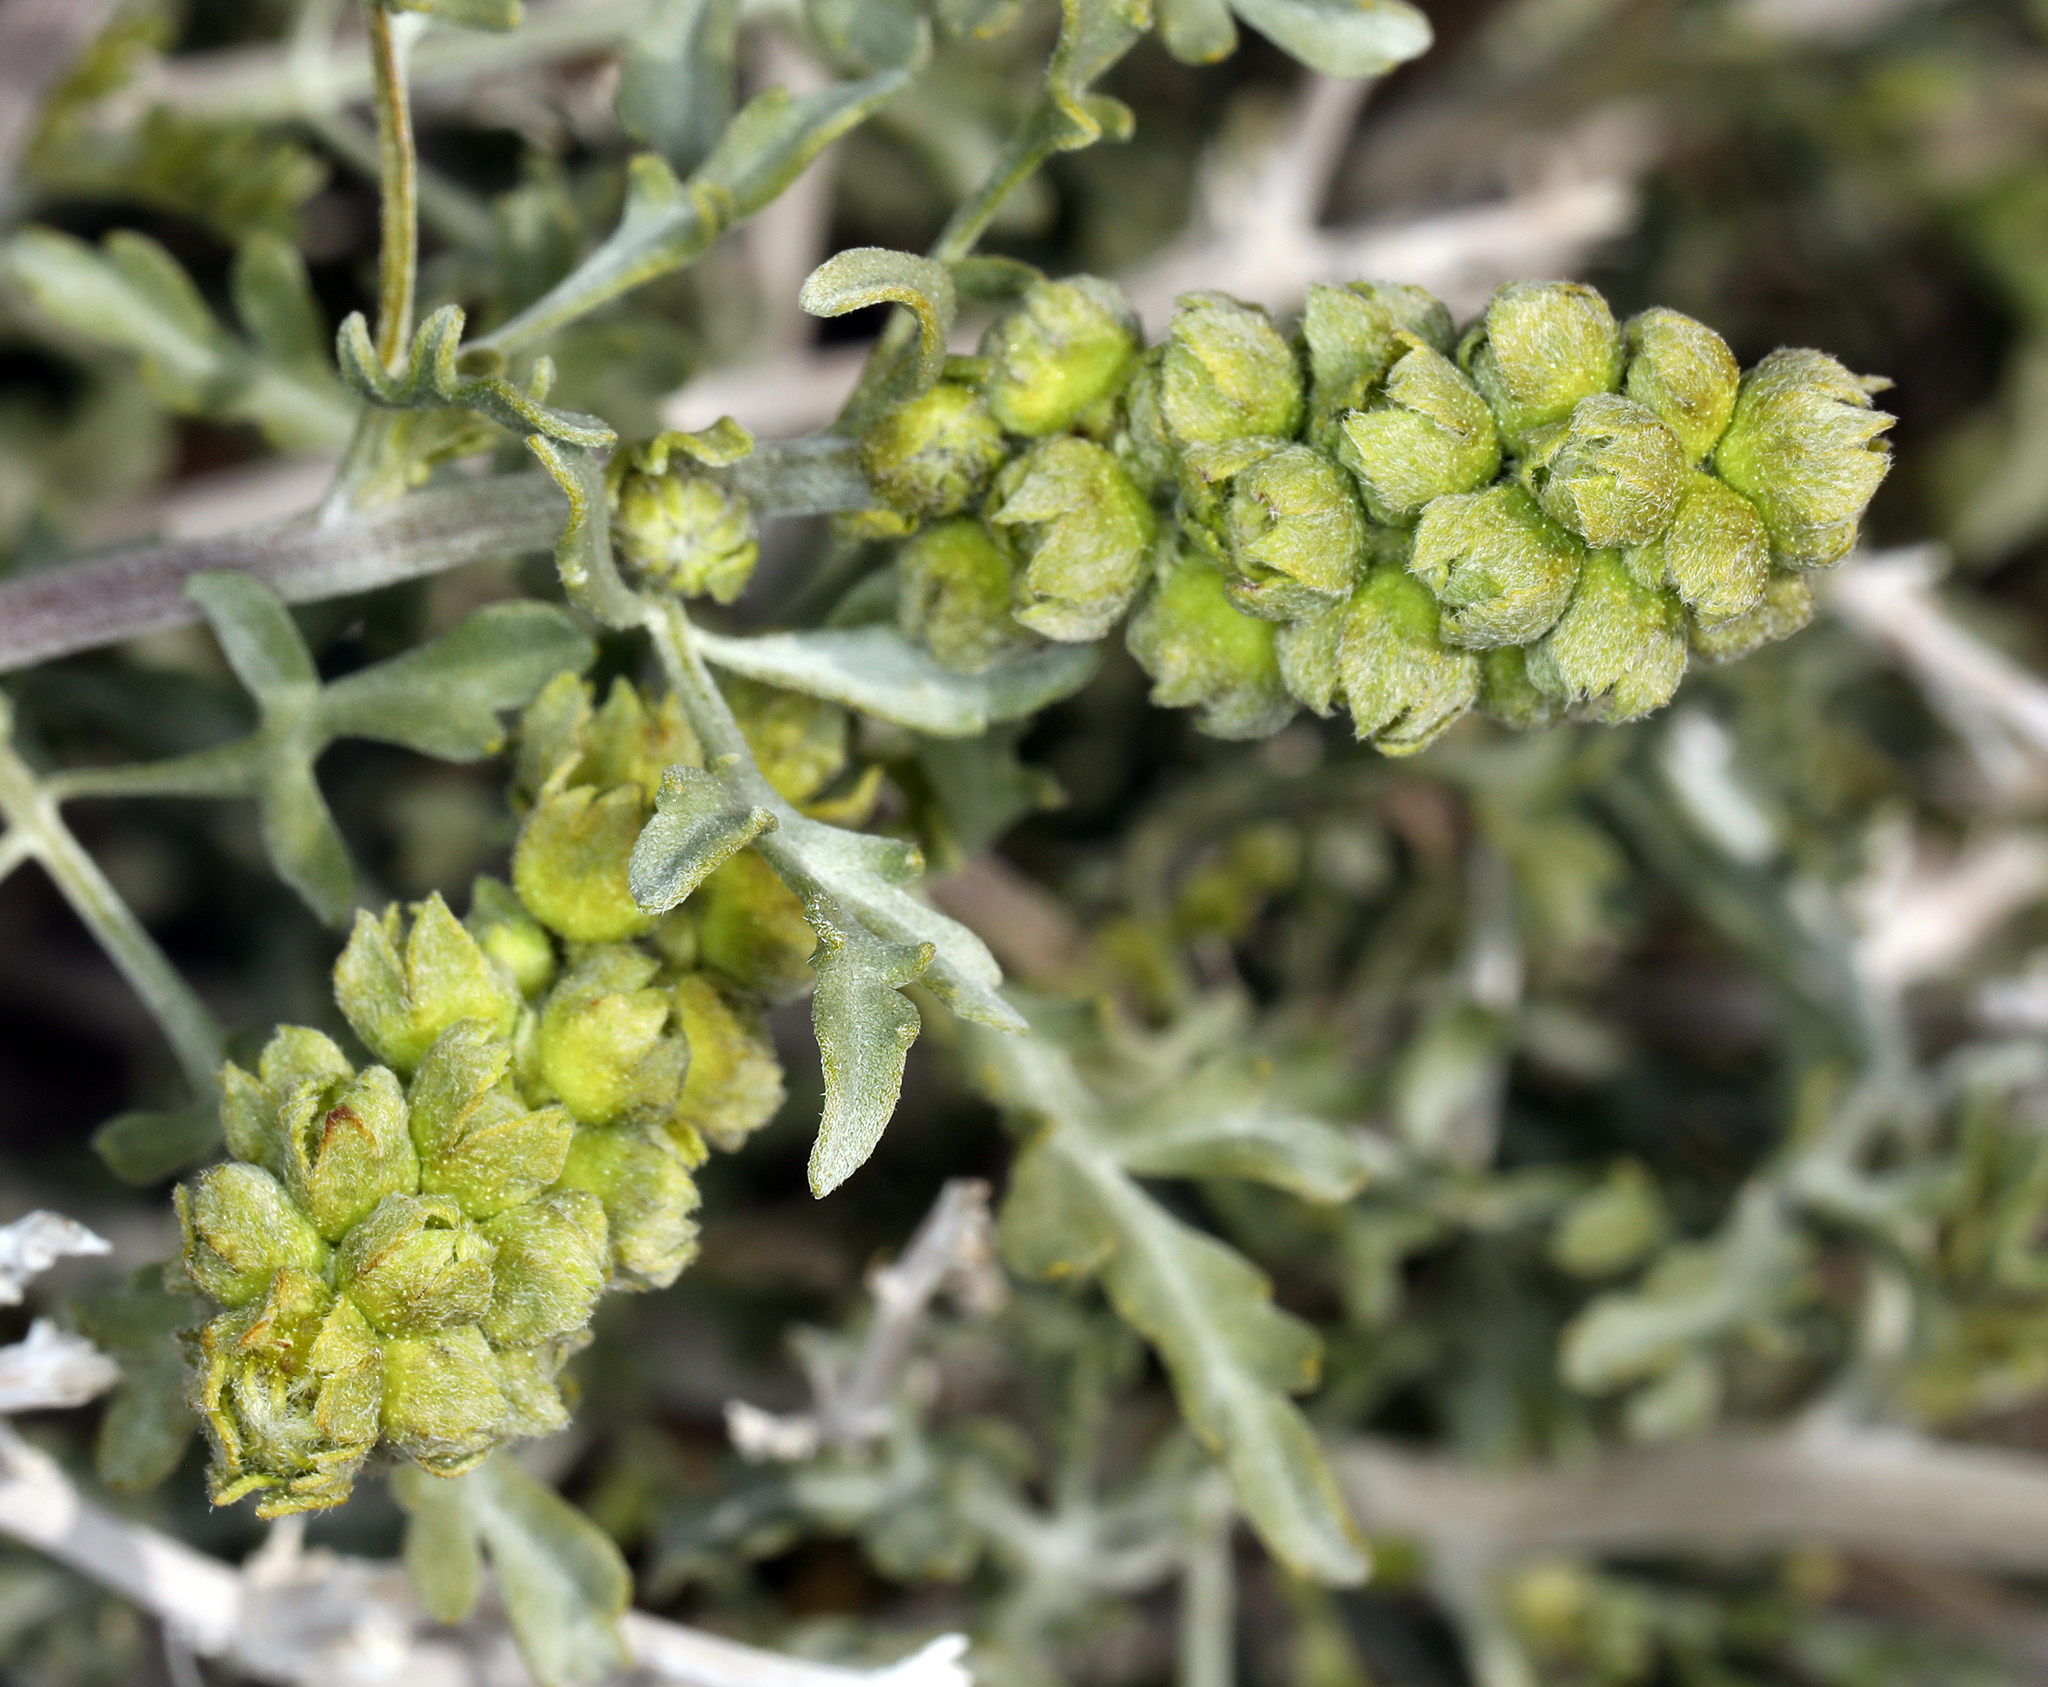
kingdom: Plantae
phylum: Tracheophyta
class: Magnoliopsida
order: Asterales
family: Asteraceae
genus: Ambrosia
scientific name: Ambrosia dumosa
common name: Bur-sage
